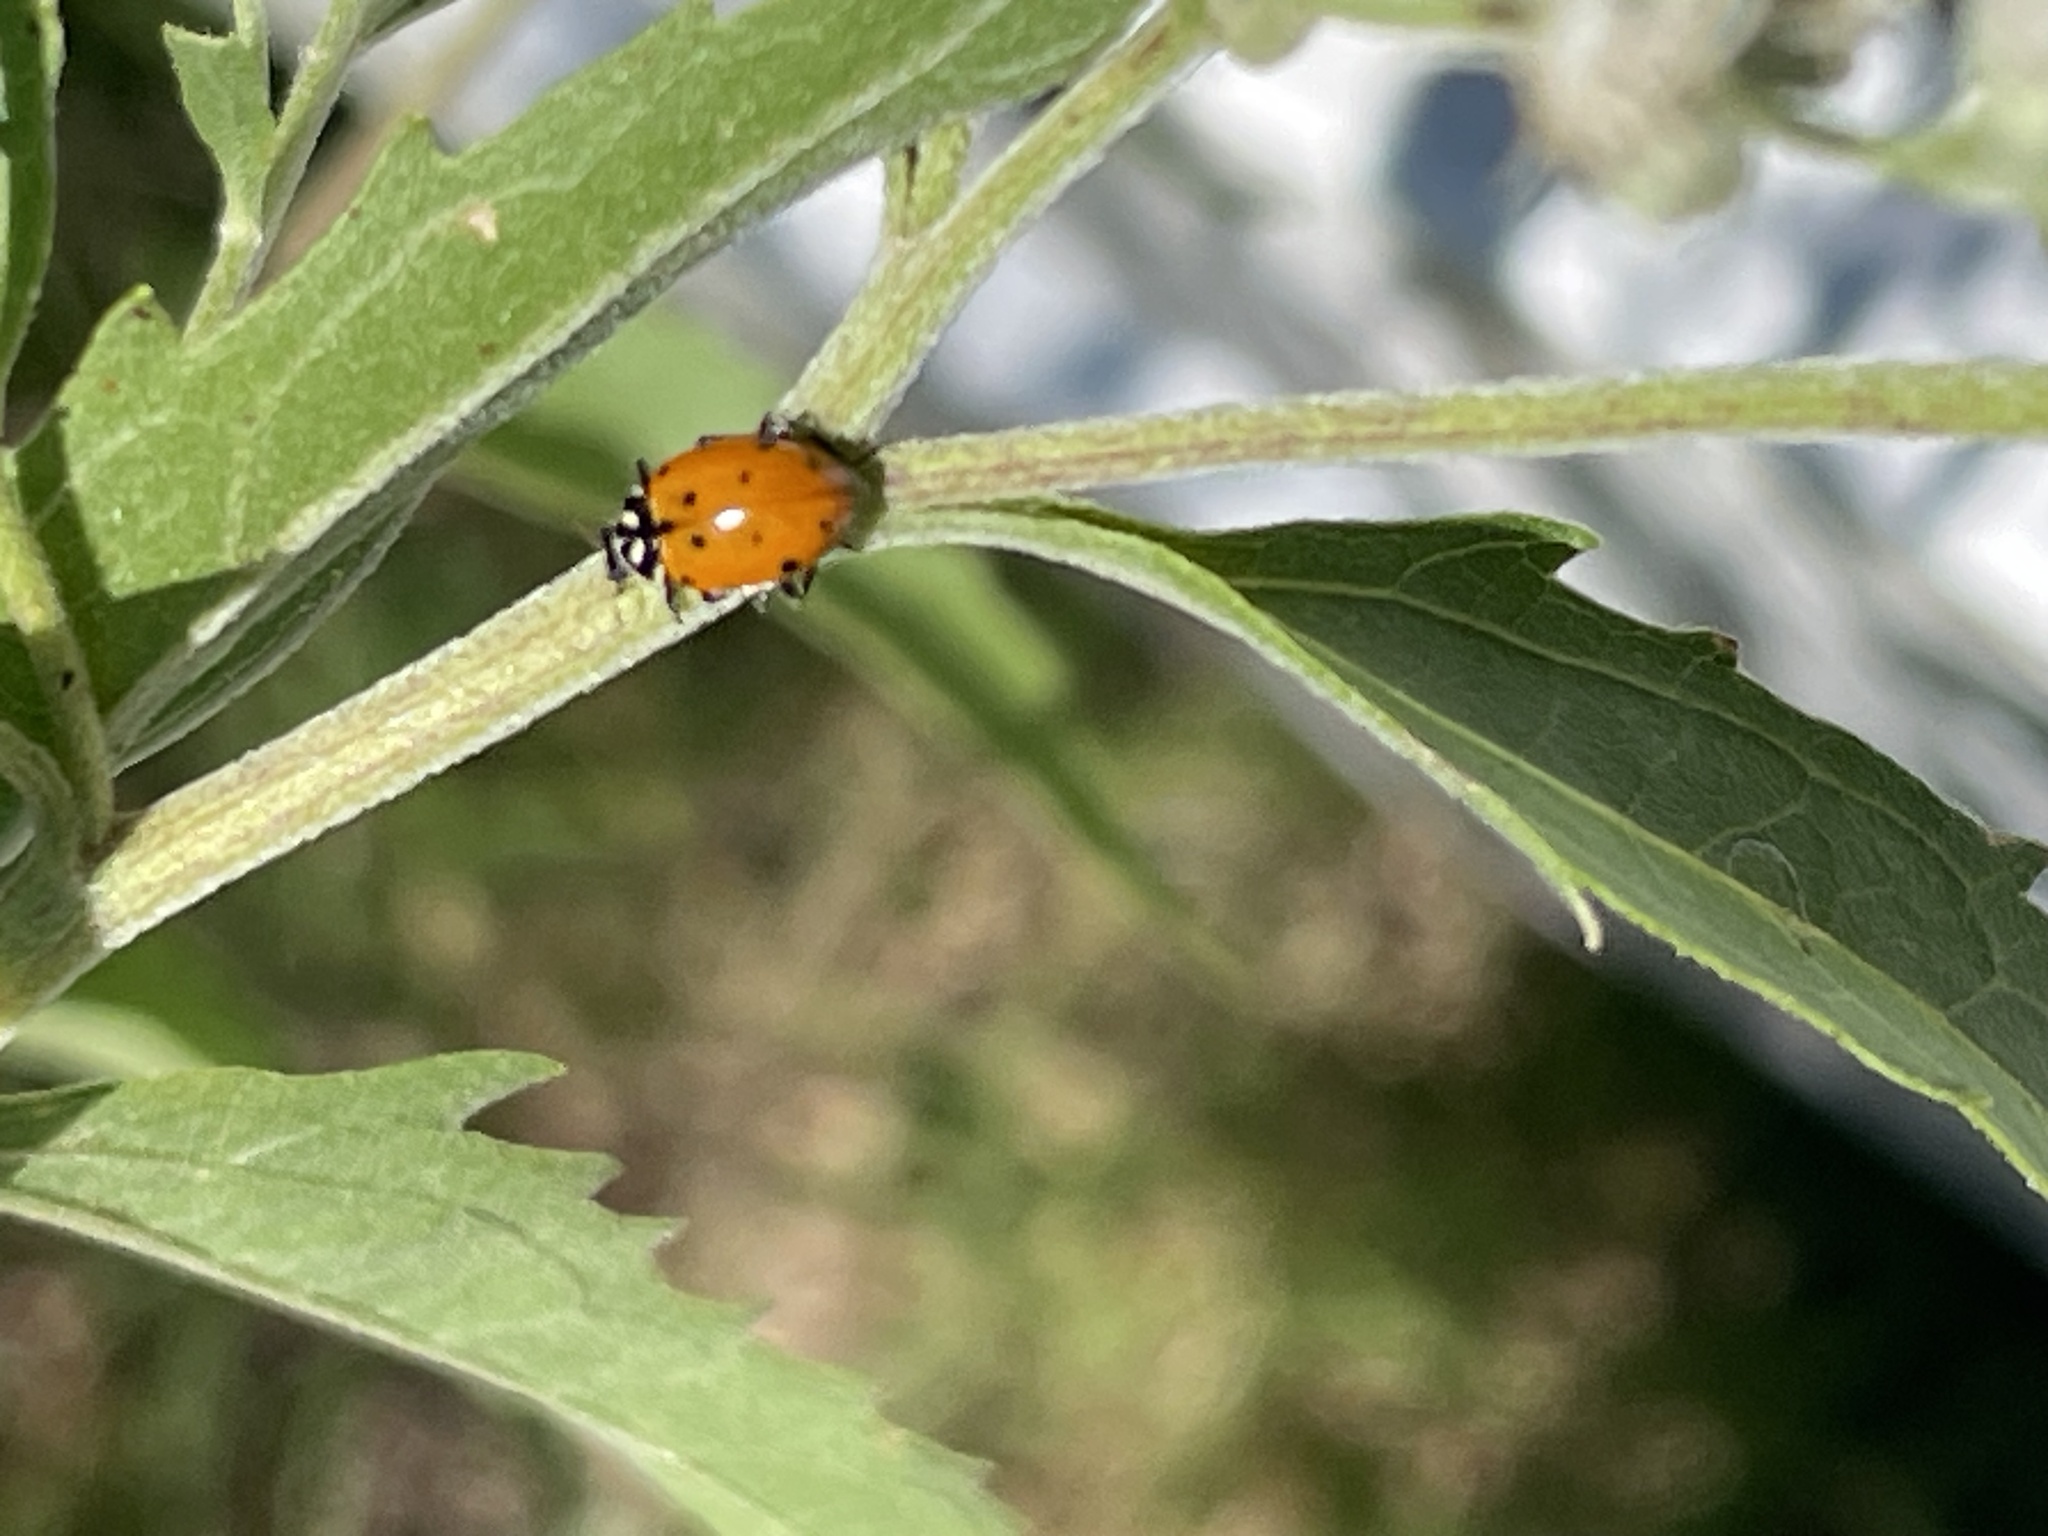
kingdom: Animalia
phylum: Arthropoda
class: Insecta
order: Coleoptera
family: Coccinellidae
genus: Hippodamia
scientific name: Hippodamia convergens
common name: Convergent lady beetle
